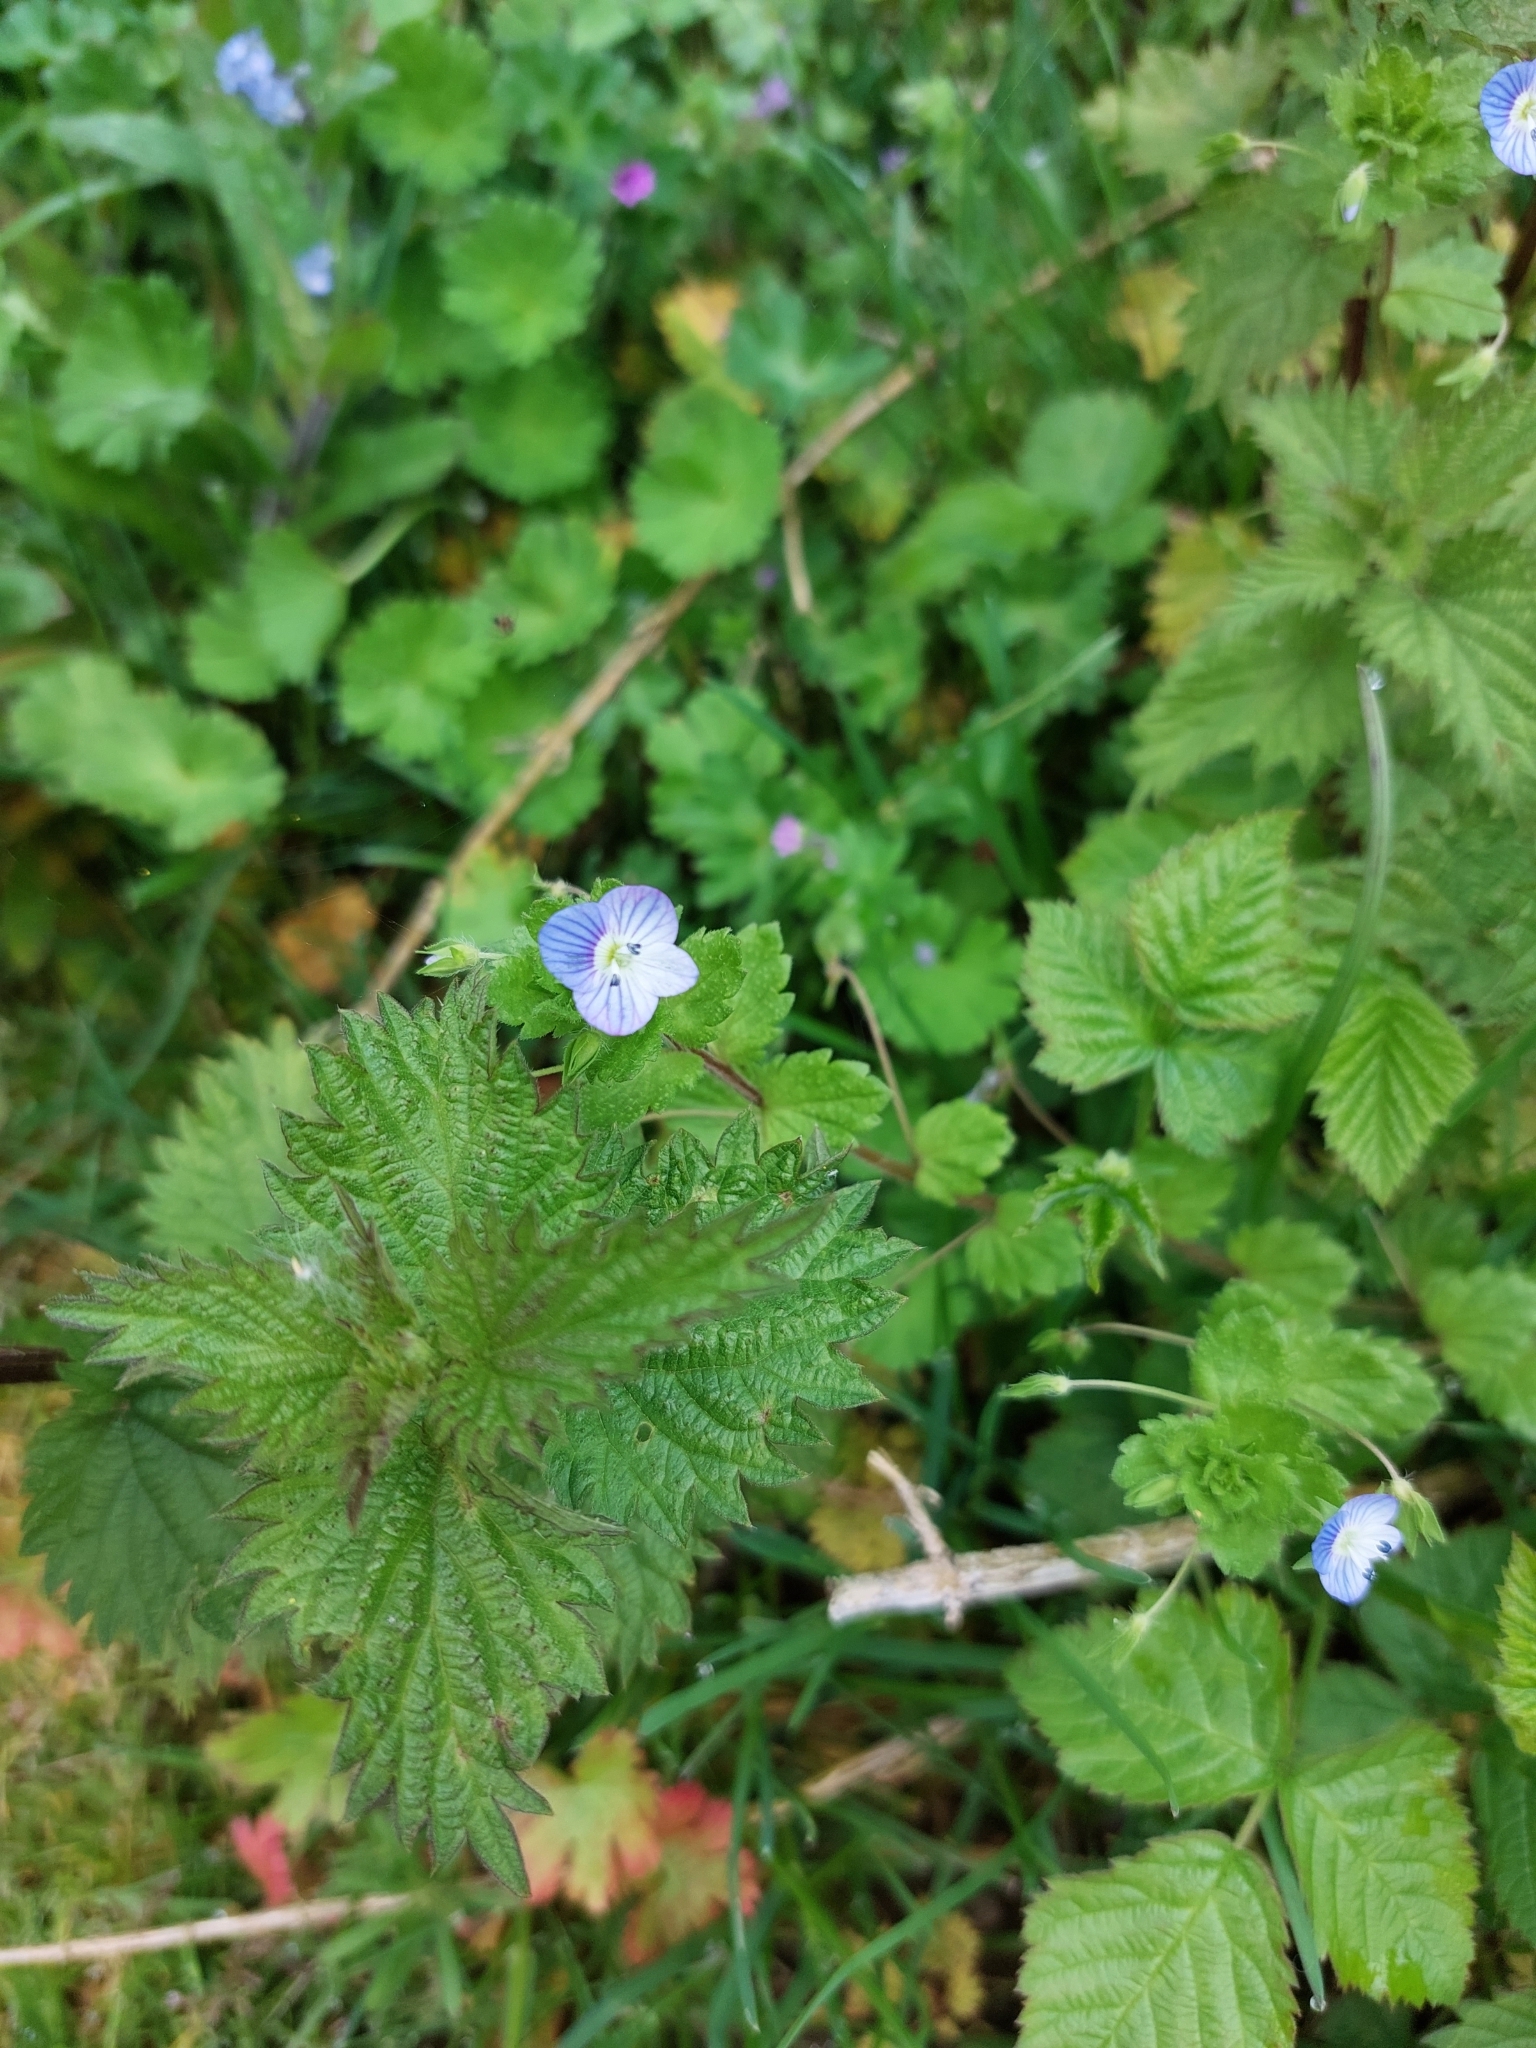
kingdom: Plantae
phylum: Tracheophyta
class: Magnoliopsida
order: Lamiales
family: Plantaginaceae
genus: Veronica
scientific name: Veronica persica
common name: Common field-speedwell
